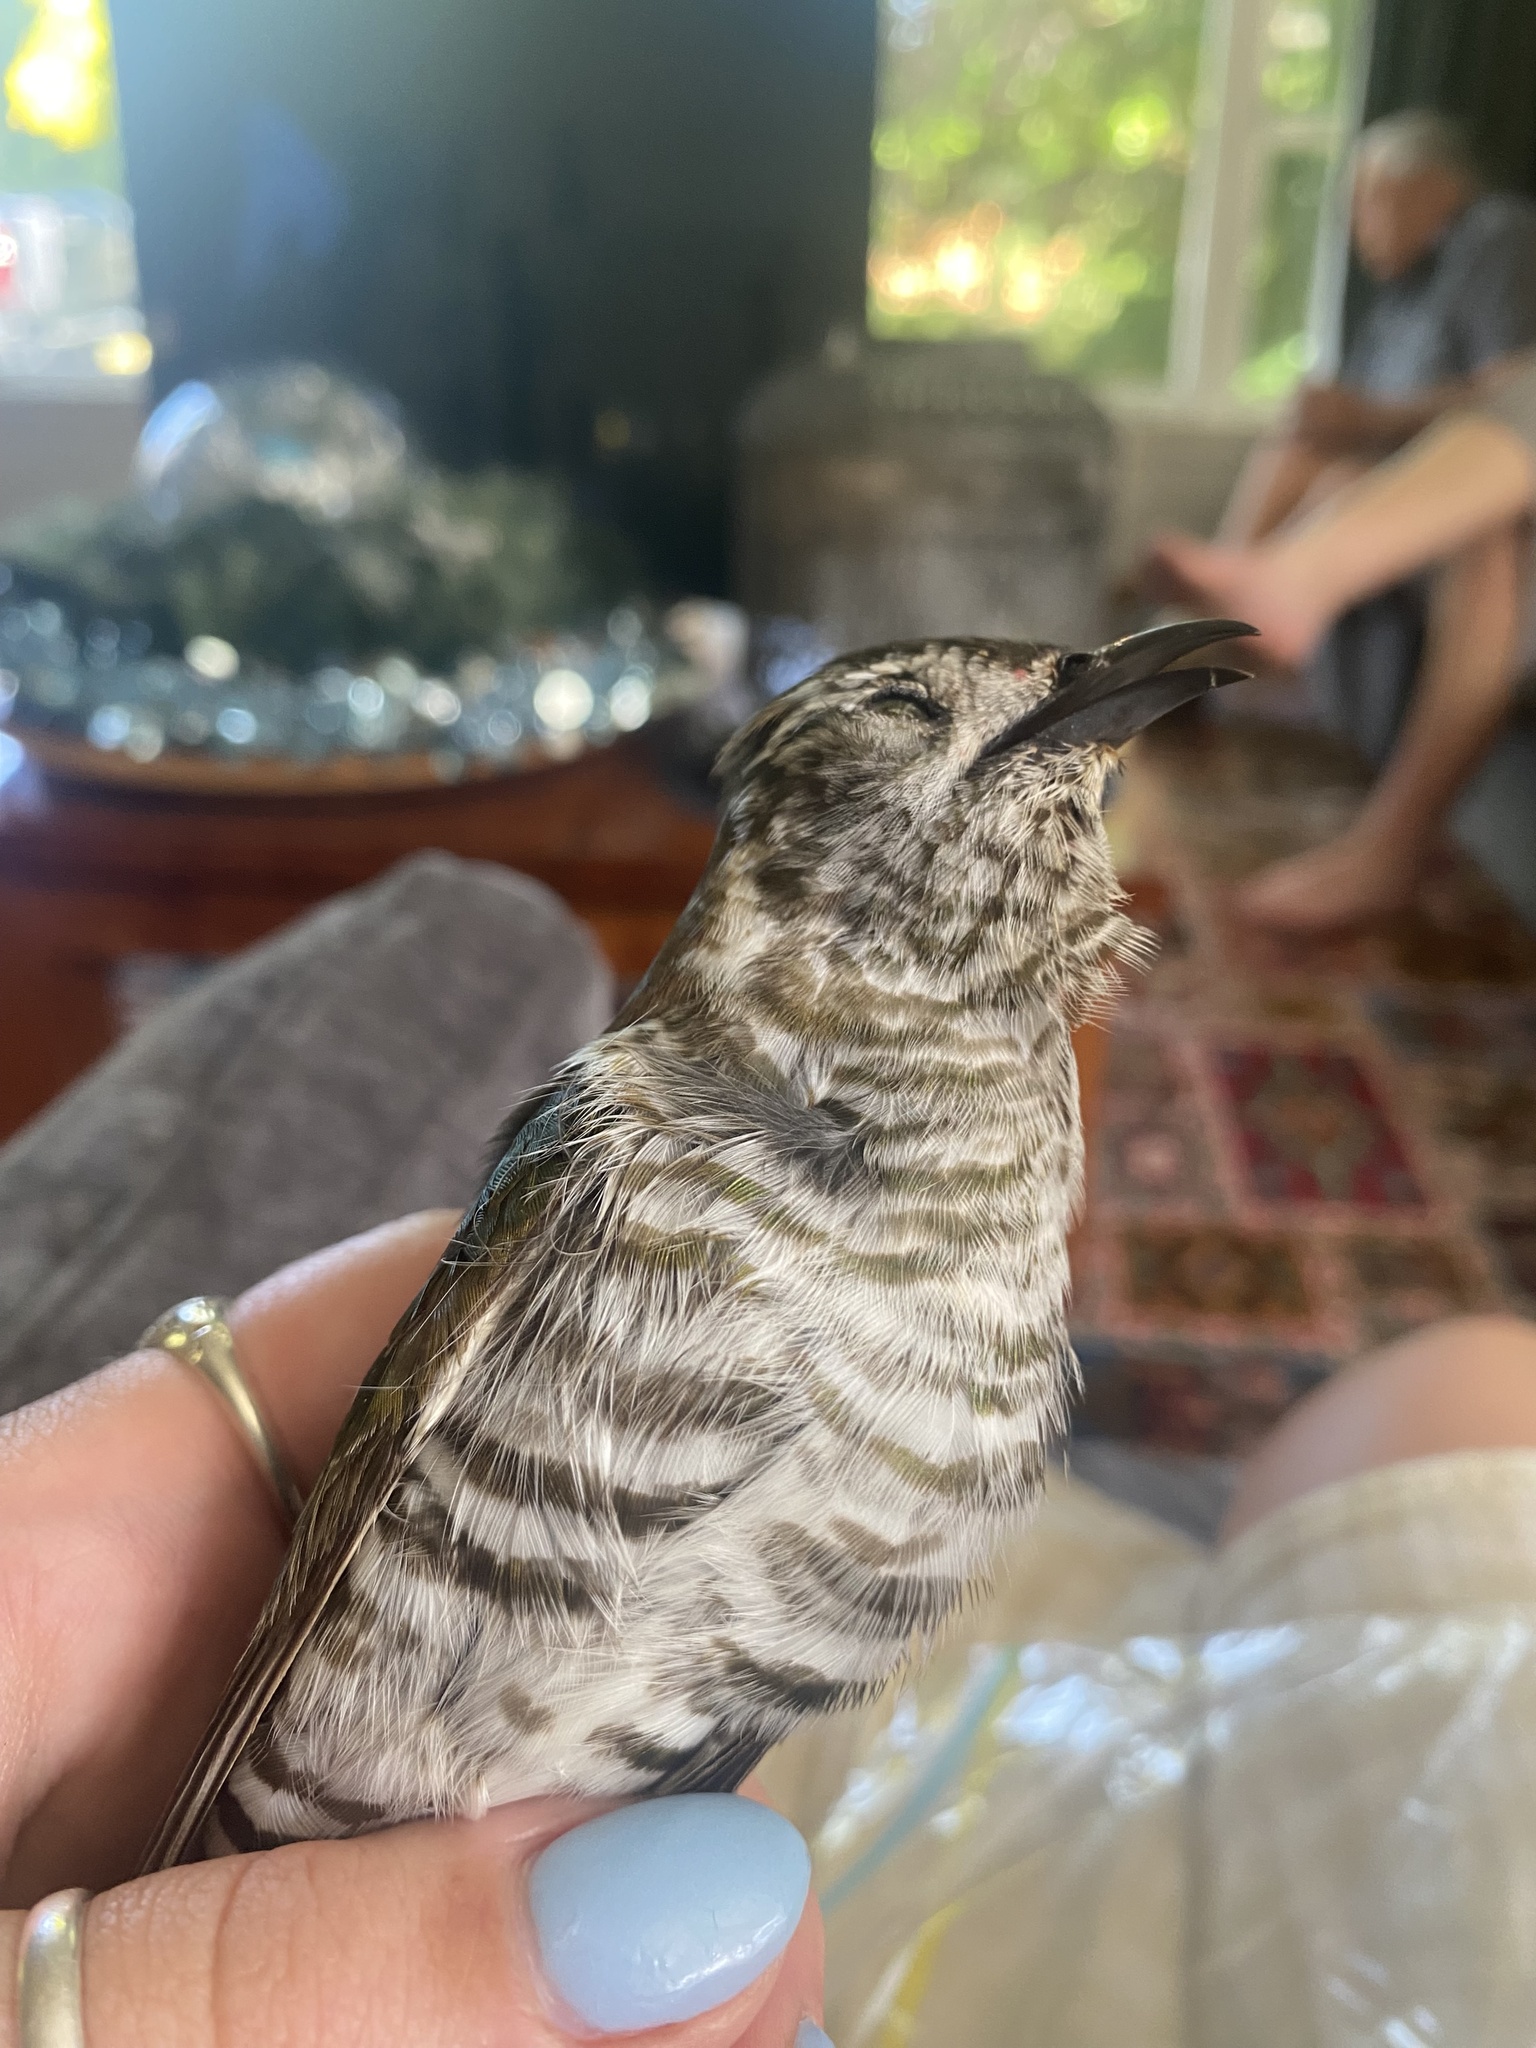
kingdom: Animalia
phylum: Chordata
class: Aves
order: Cuculiformes
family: Cuculidae
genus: Chrysococcyx
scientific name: Chrysococcyx lucidus
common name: Shining bronze cuckoo
